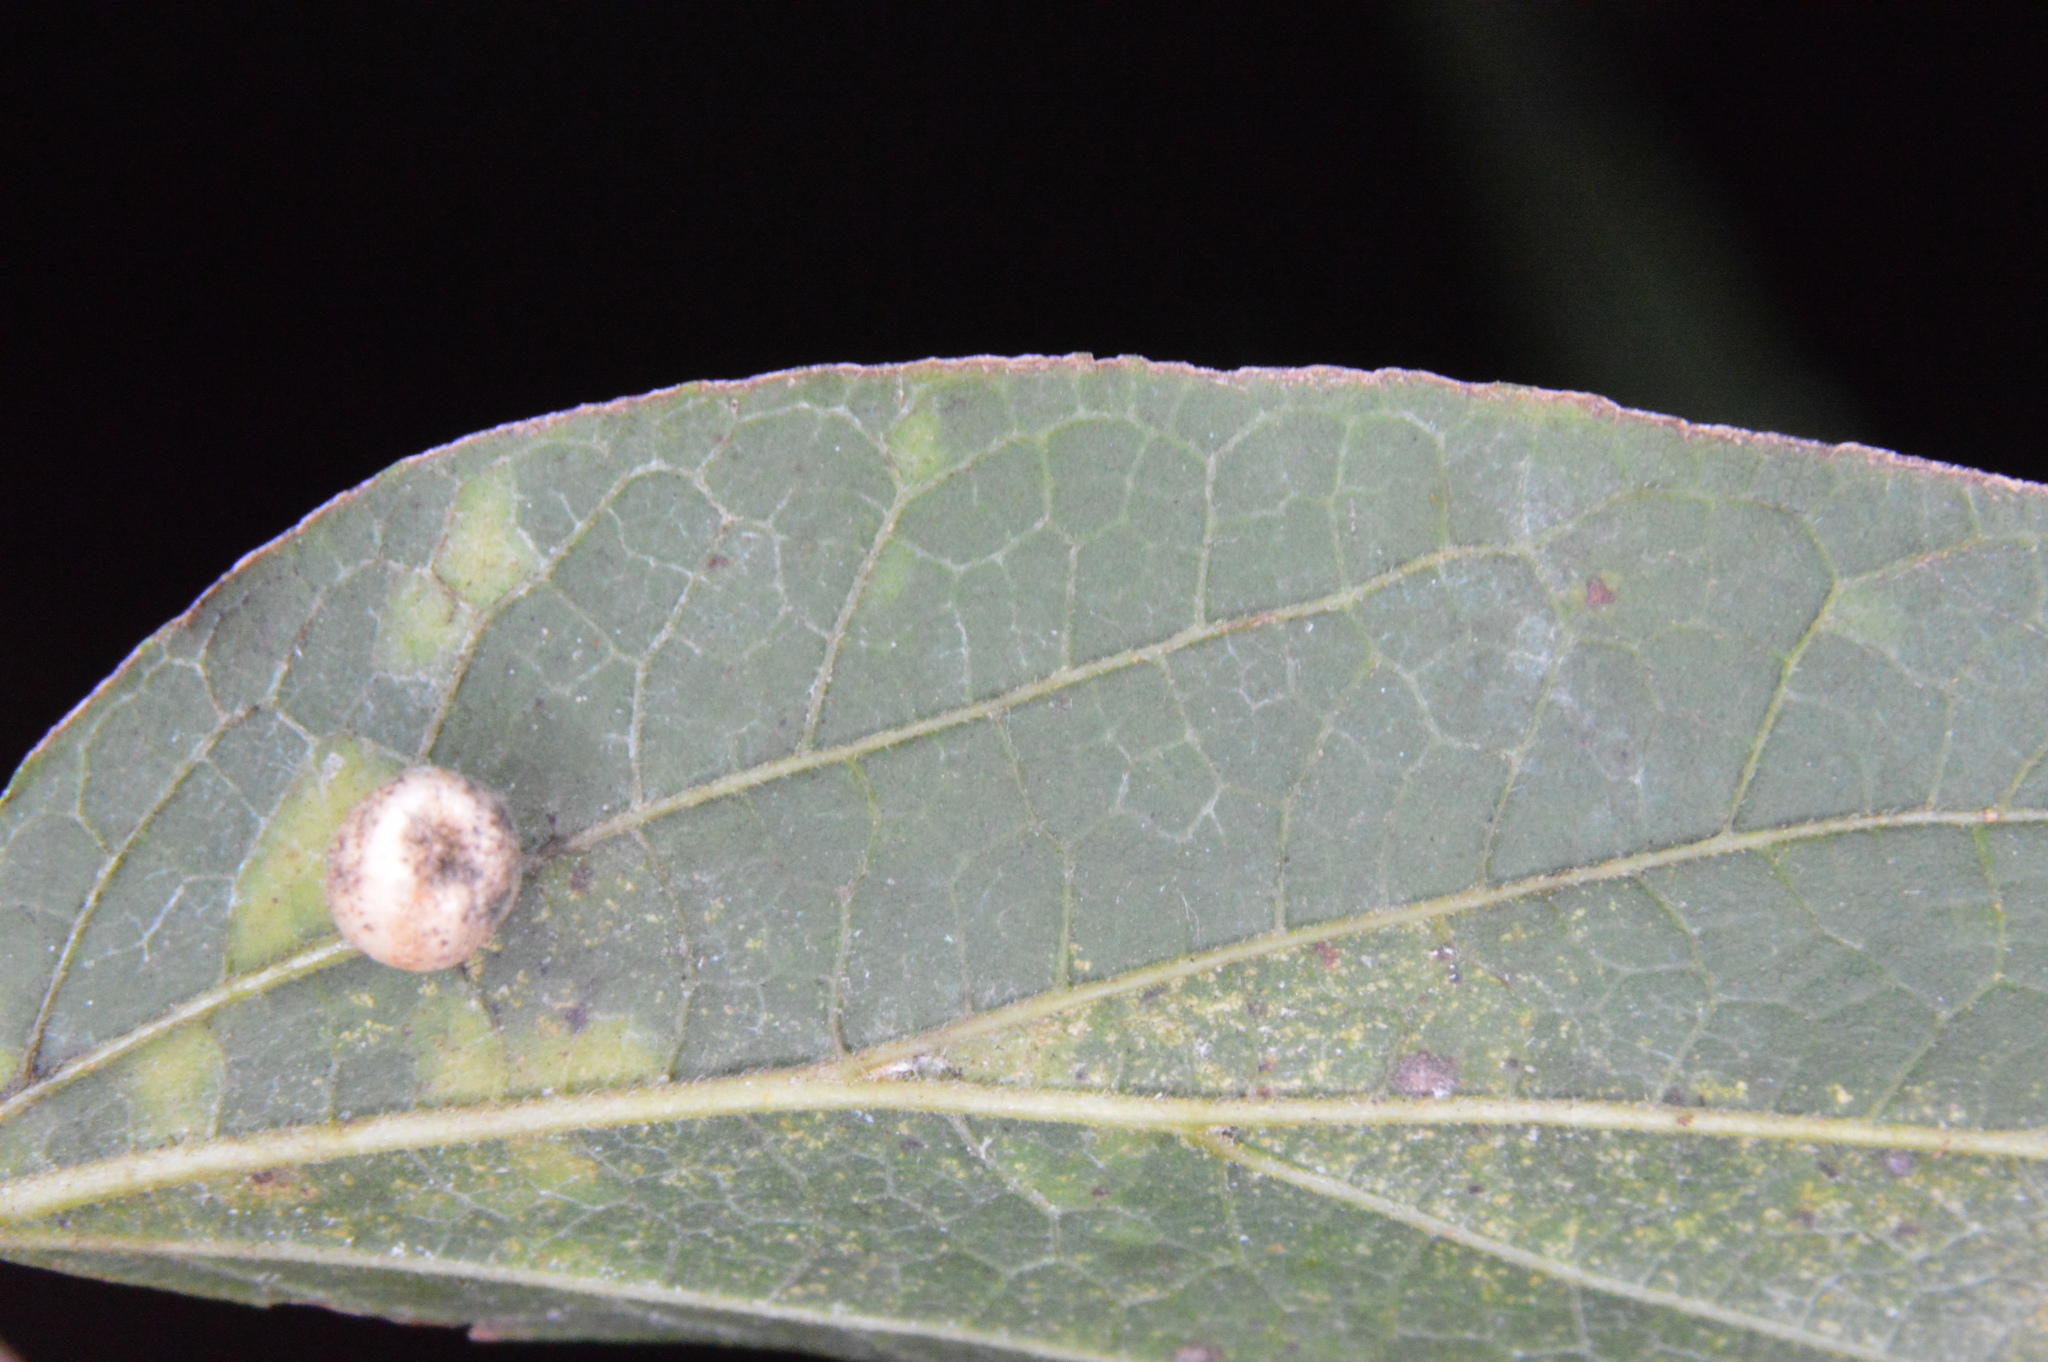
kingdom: Animalia
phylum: Arthropoda
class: Insecta
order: Diptera
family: Cecidomyiidae
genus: Celticecis
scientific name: Celticecis pubescens
